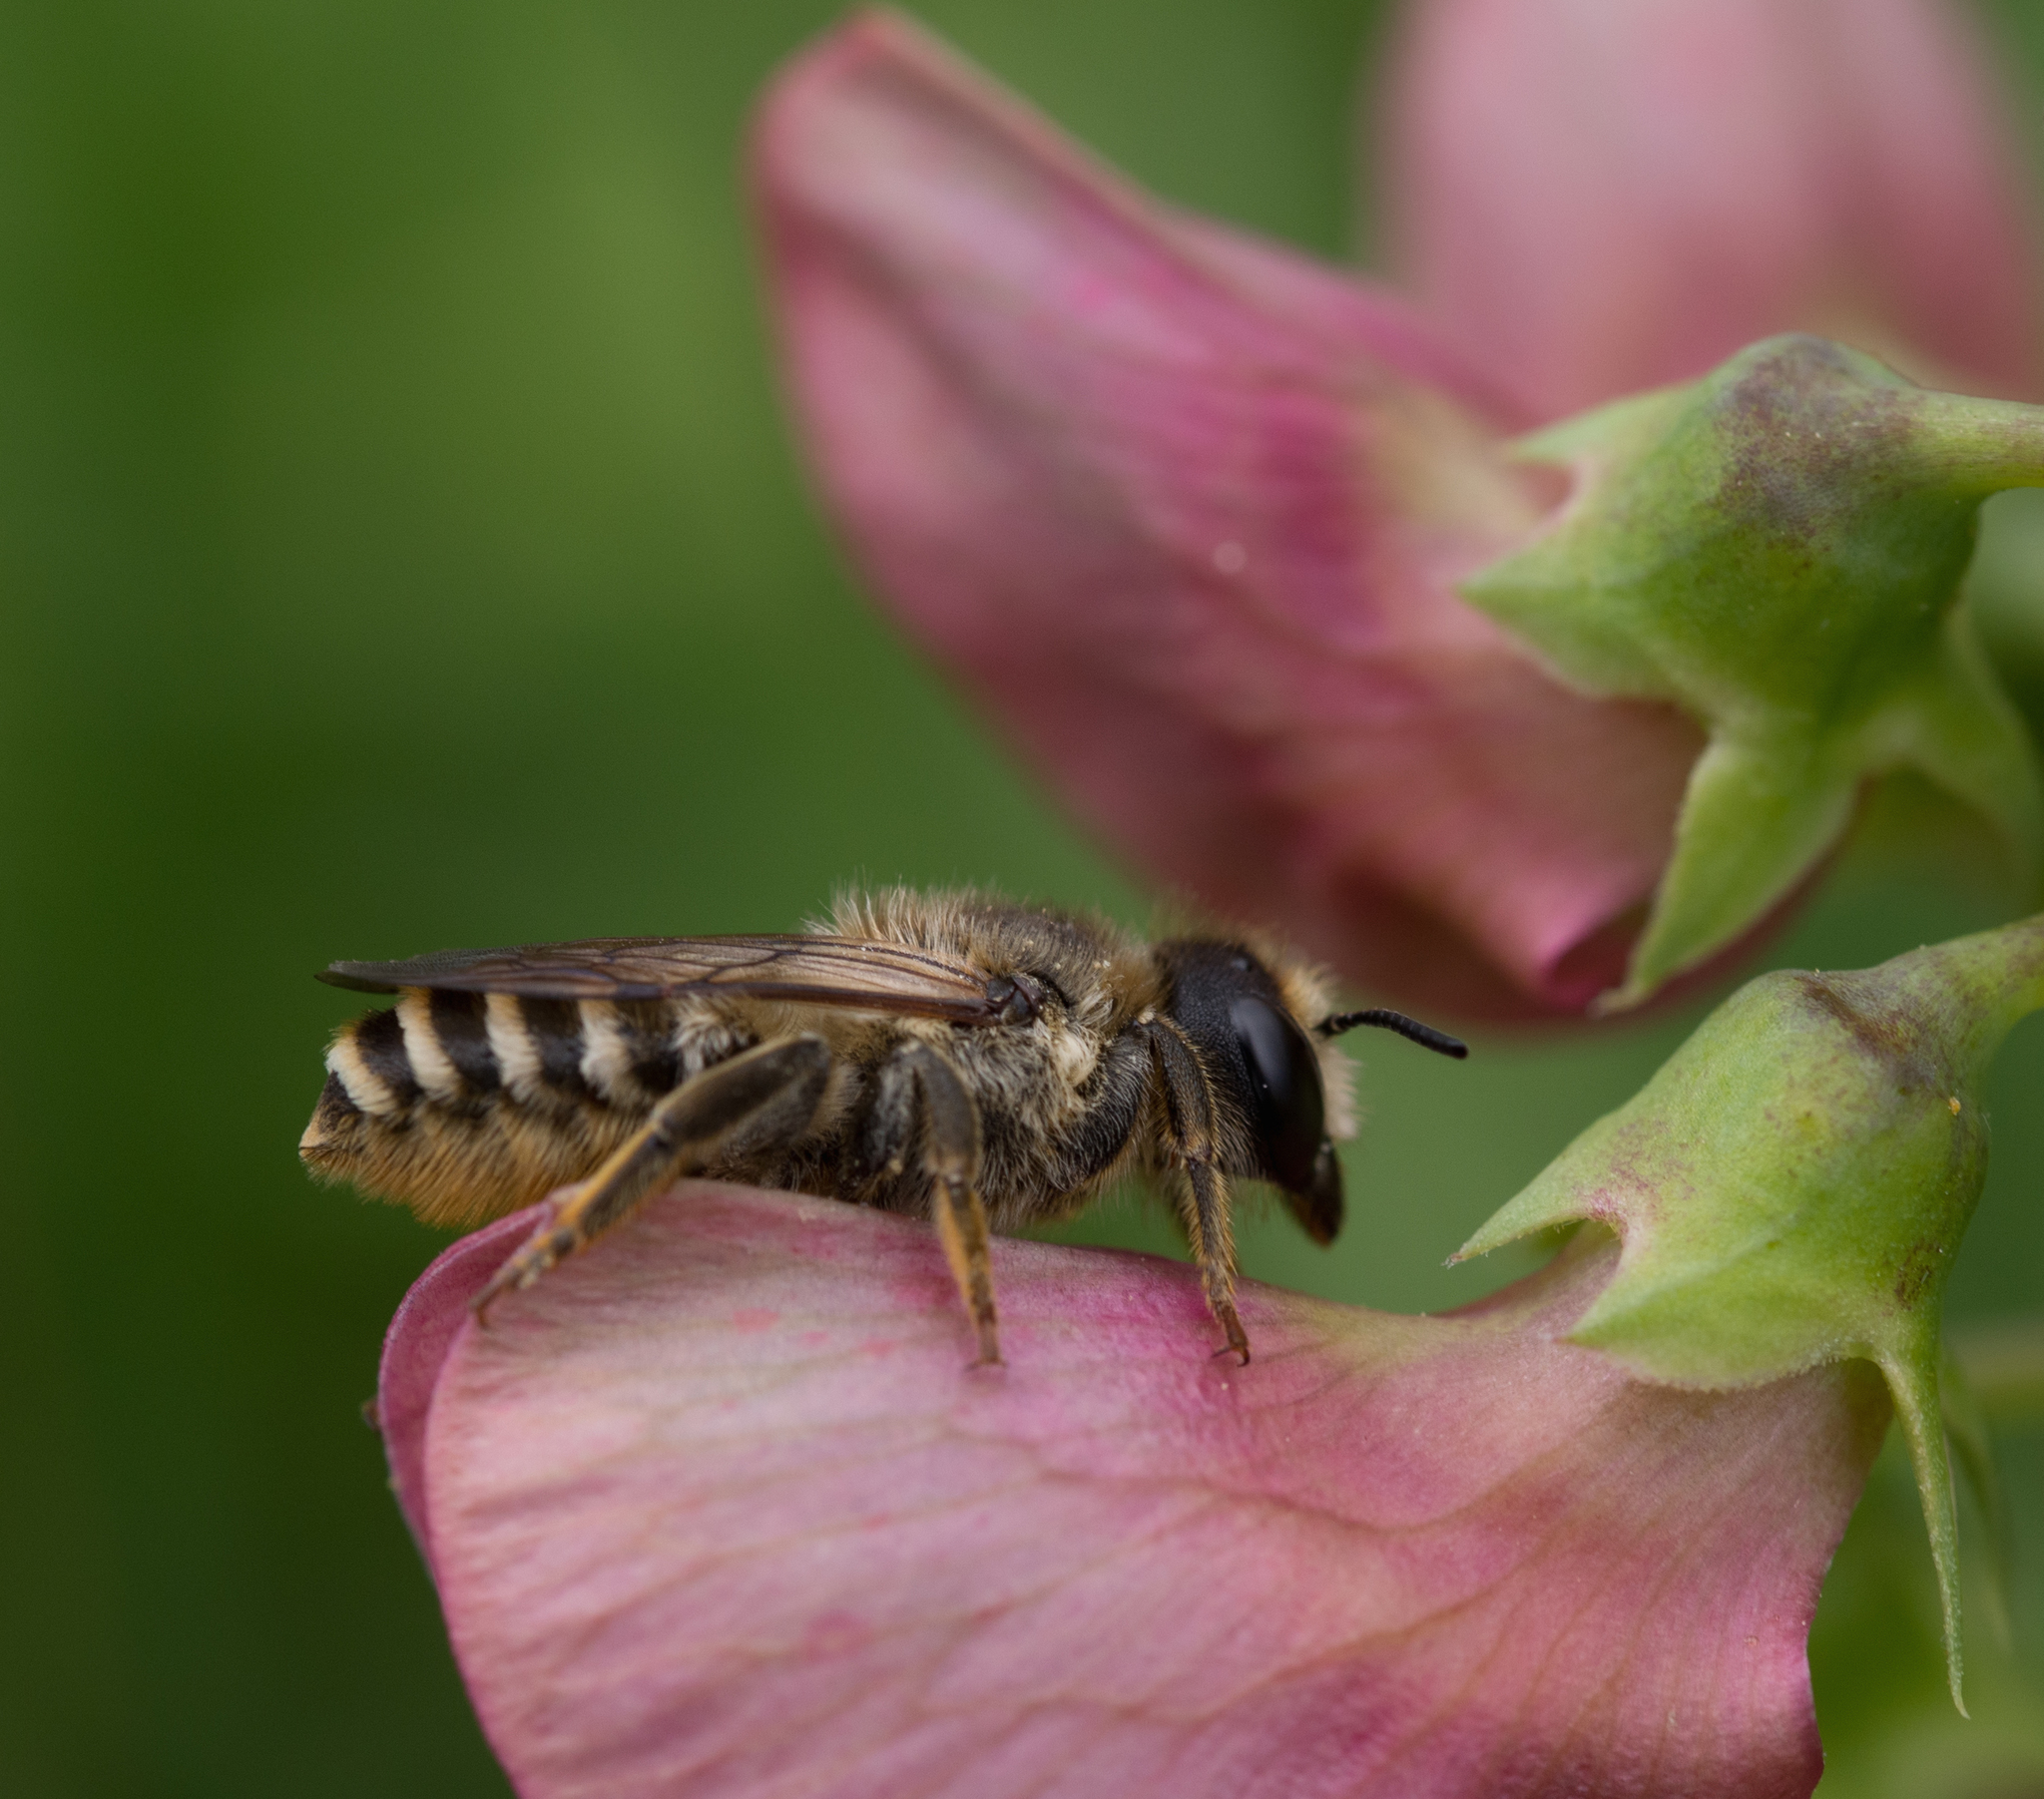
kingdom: Animalia
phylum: Arthropoda
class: Insecta
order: Hymenoptera
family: Megachilidae
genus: Megachile
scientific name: Megachile ericetorum
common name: Leafcutter bee
